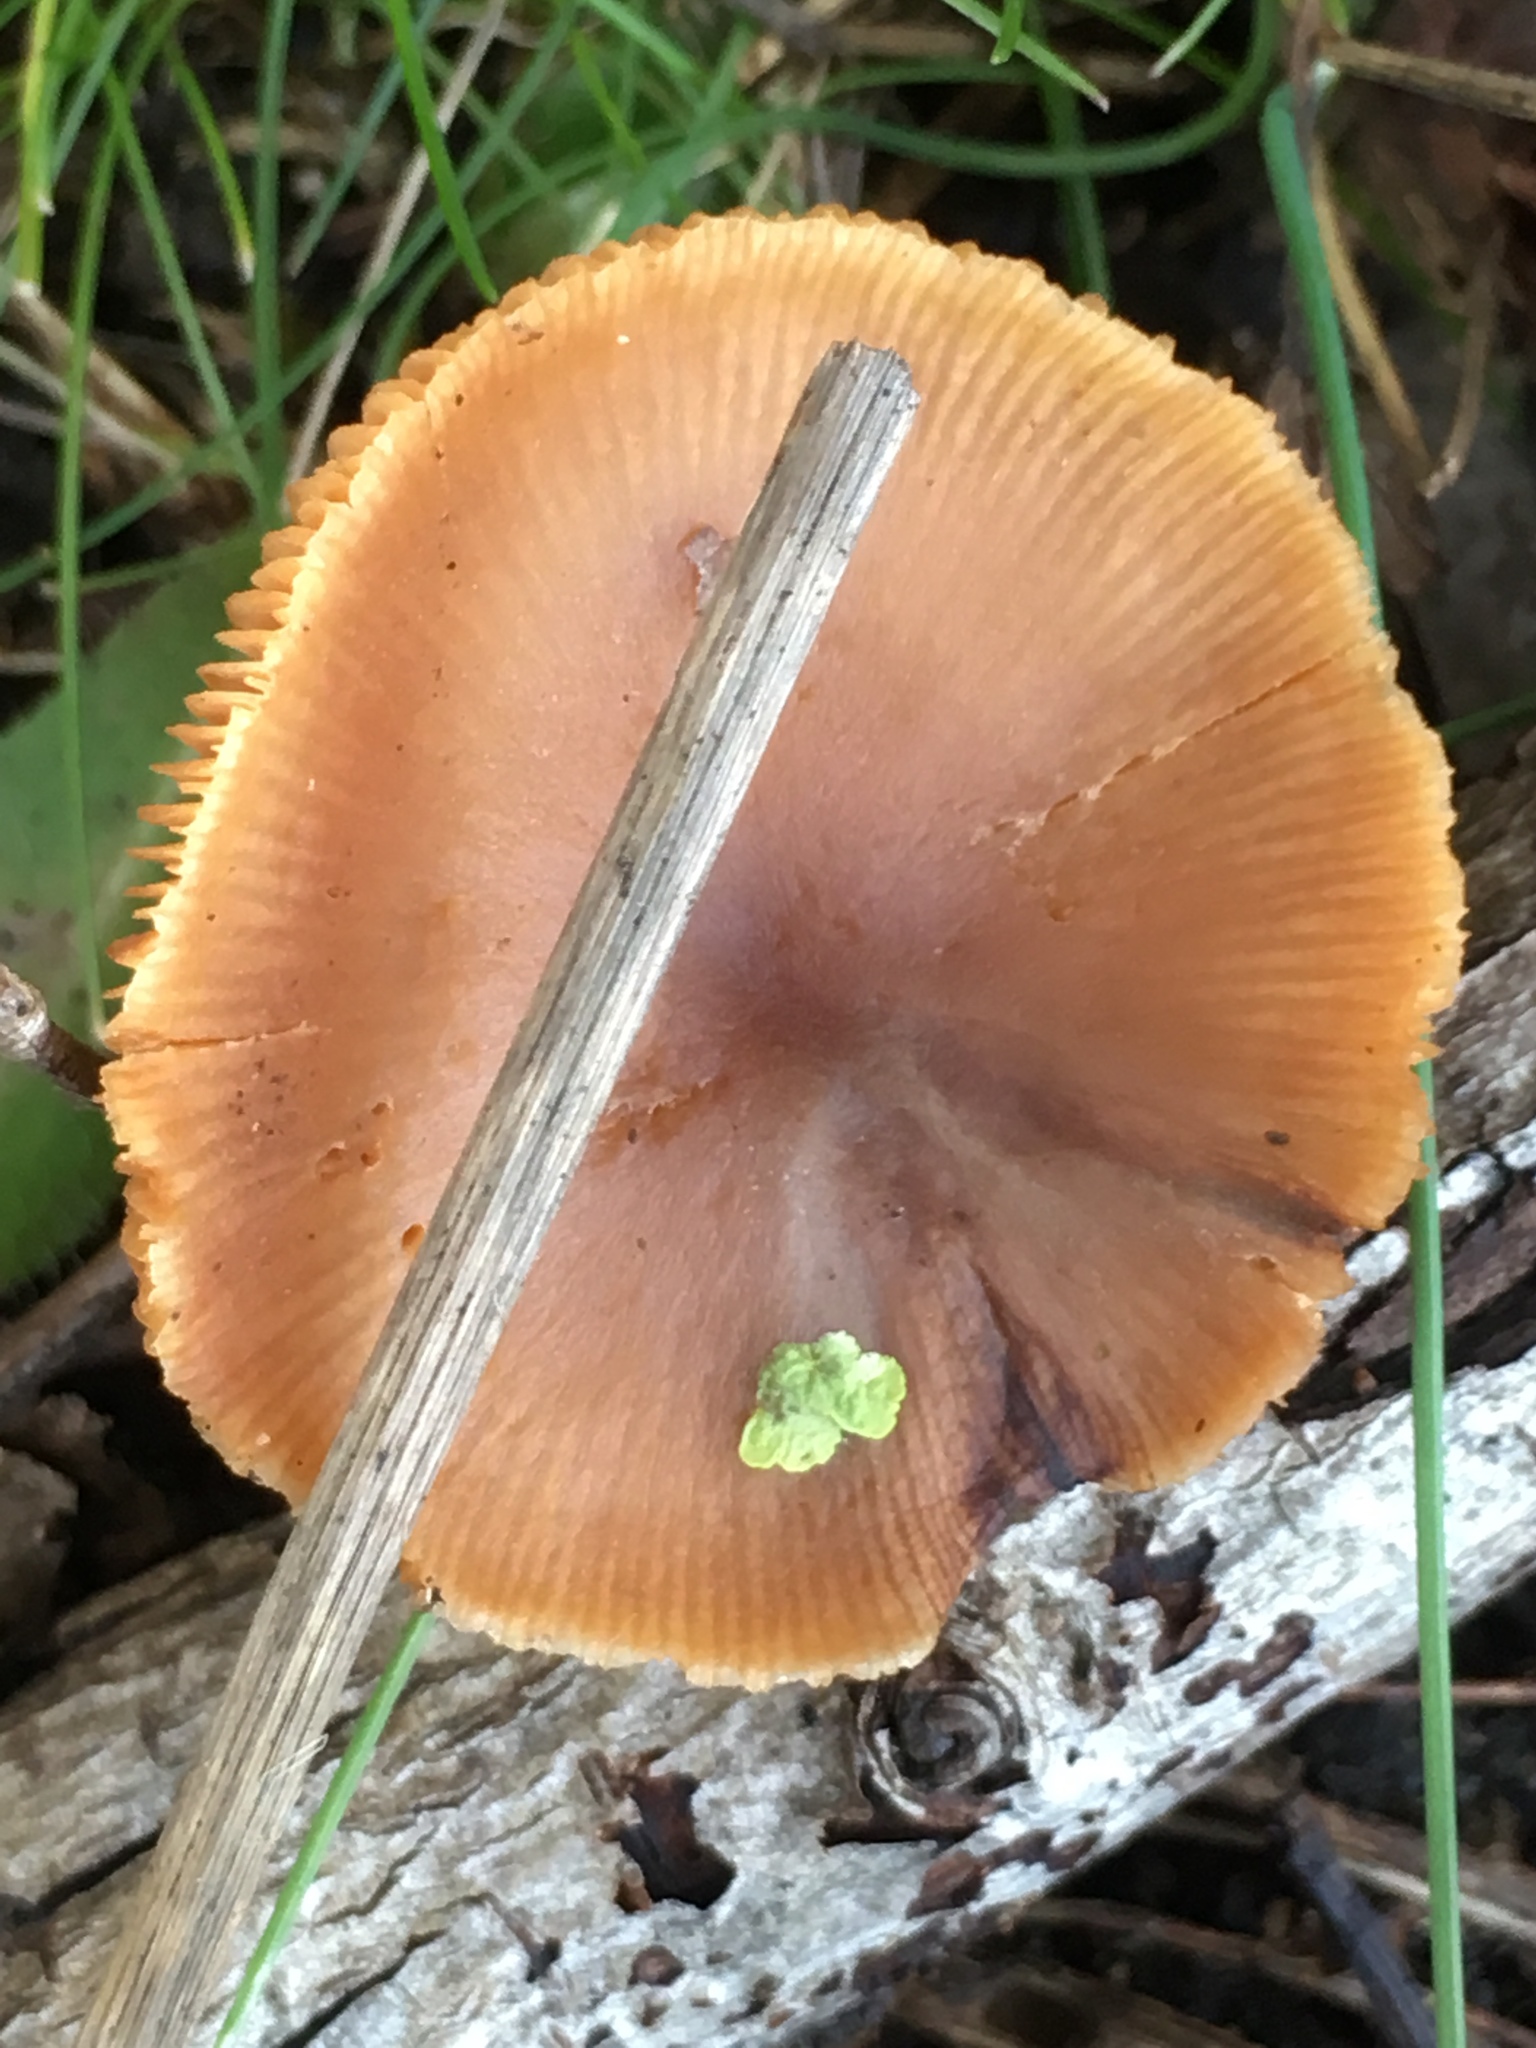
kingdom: Fungi
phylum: Basidiomycota
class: Agaricomycetes
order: Agaricales
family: Tubariaceae
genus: Tubaria
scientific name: Tubaria furfuracea
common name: Scurfy twiglet
